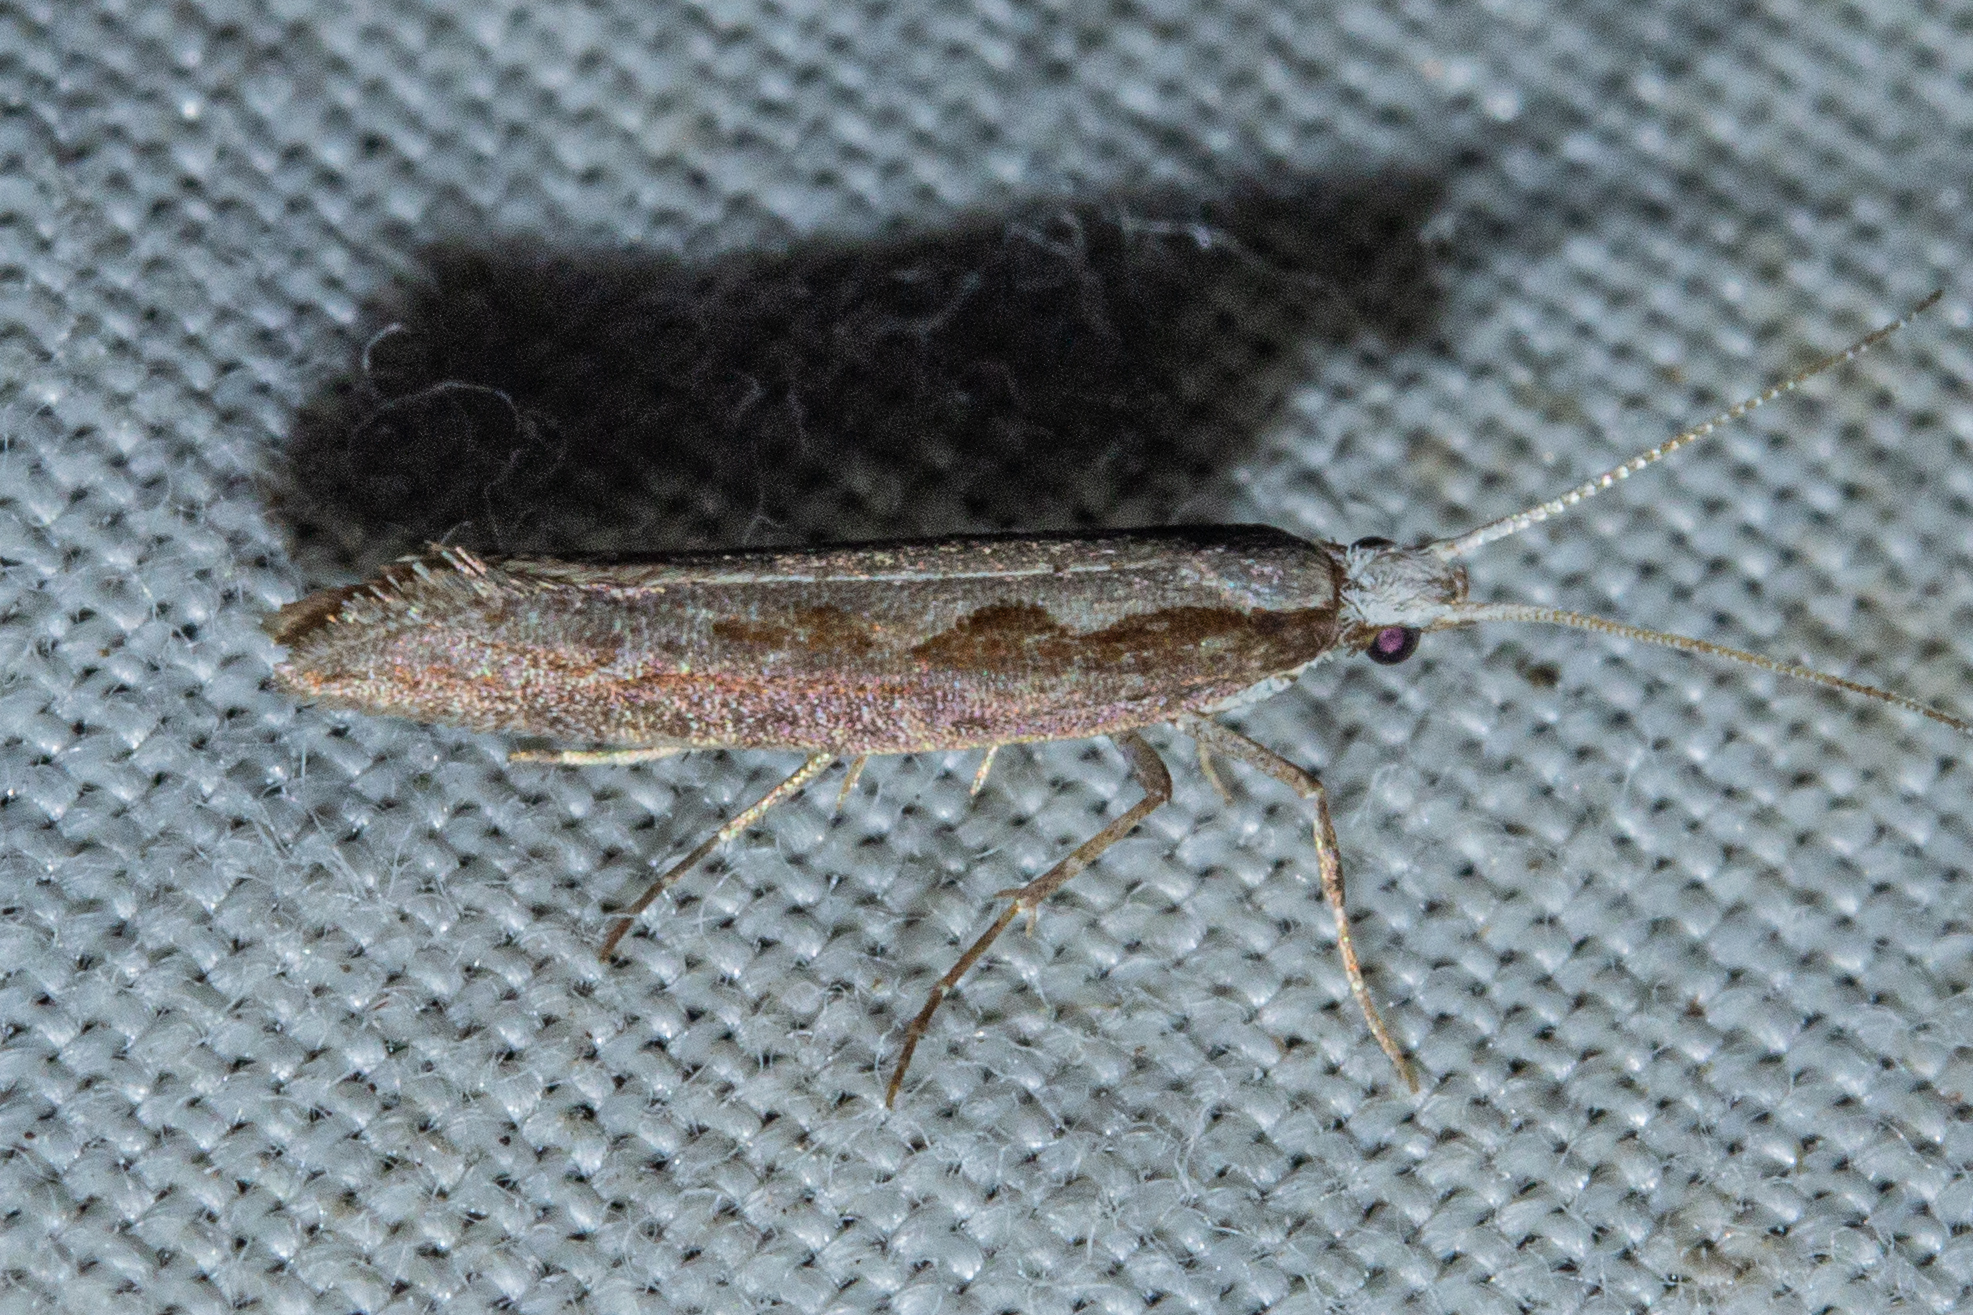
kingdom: Animalia
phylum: Arthropoda
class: Insecta
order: Lepidoptera
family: Plutellidae
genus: Plutella
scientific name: Plutella xylostella
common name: Diamond-back moth
